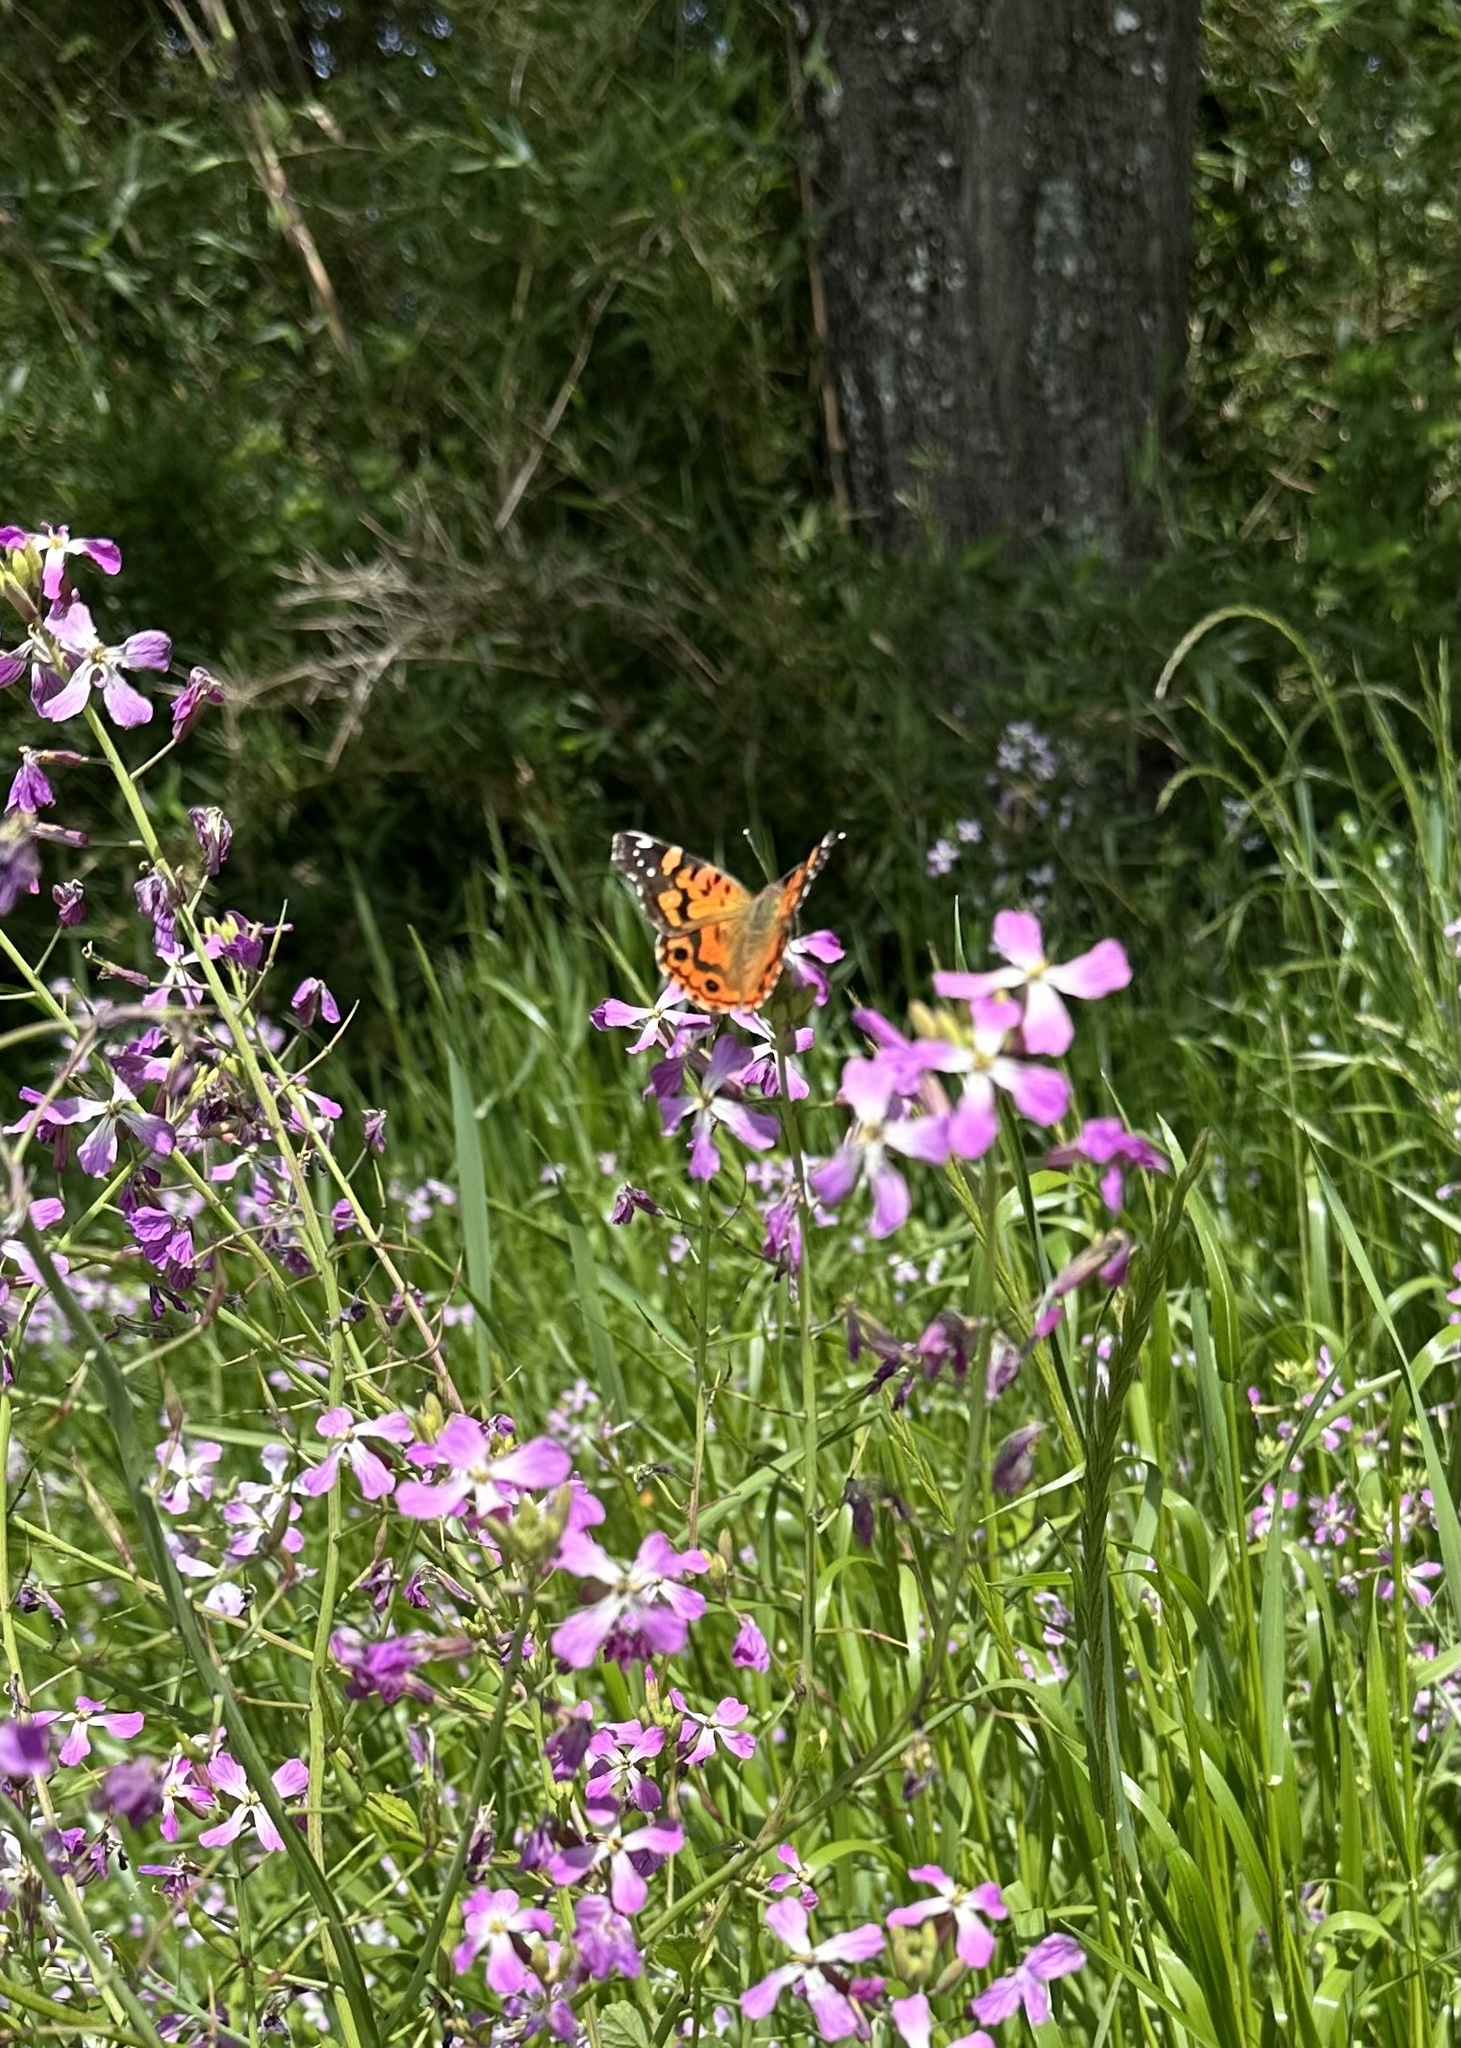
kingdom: Animalia
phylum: Arthropoda
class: Insecta
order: Lepidoptera
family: Nymphalidae
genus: Vanessa
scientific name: Vanessa terpsichore
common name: Chilean lady
